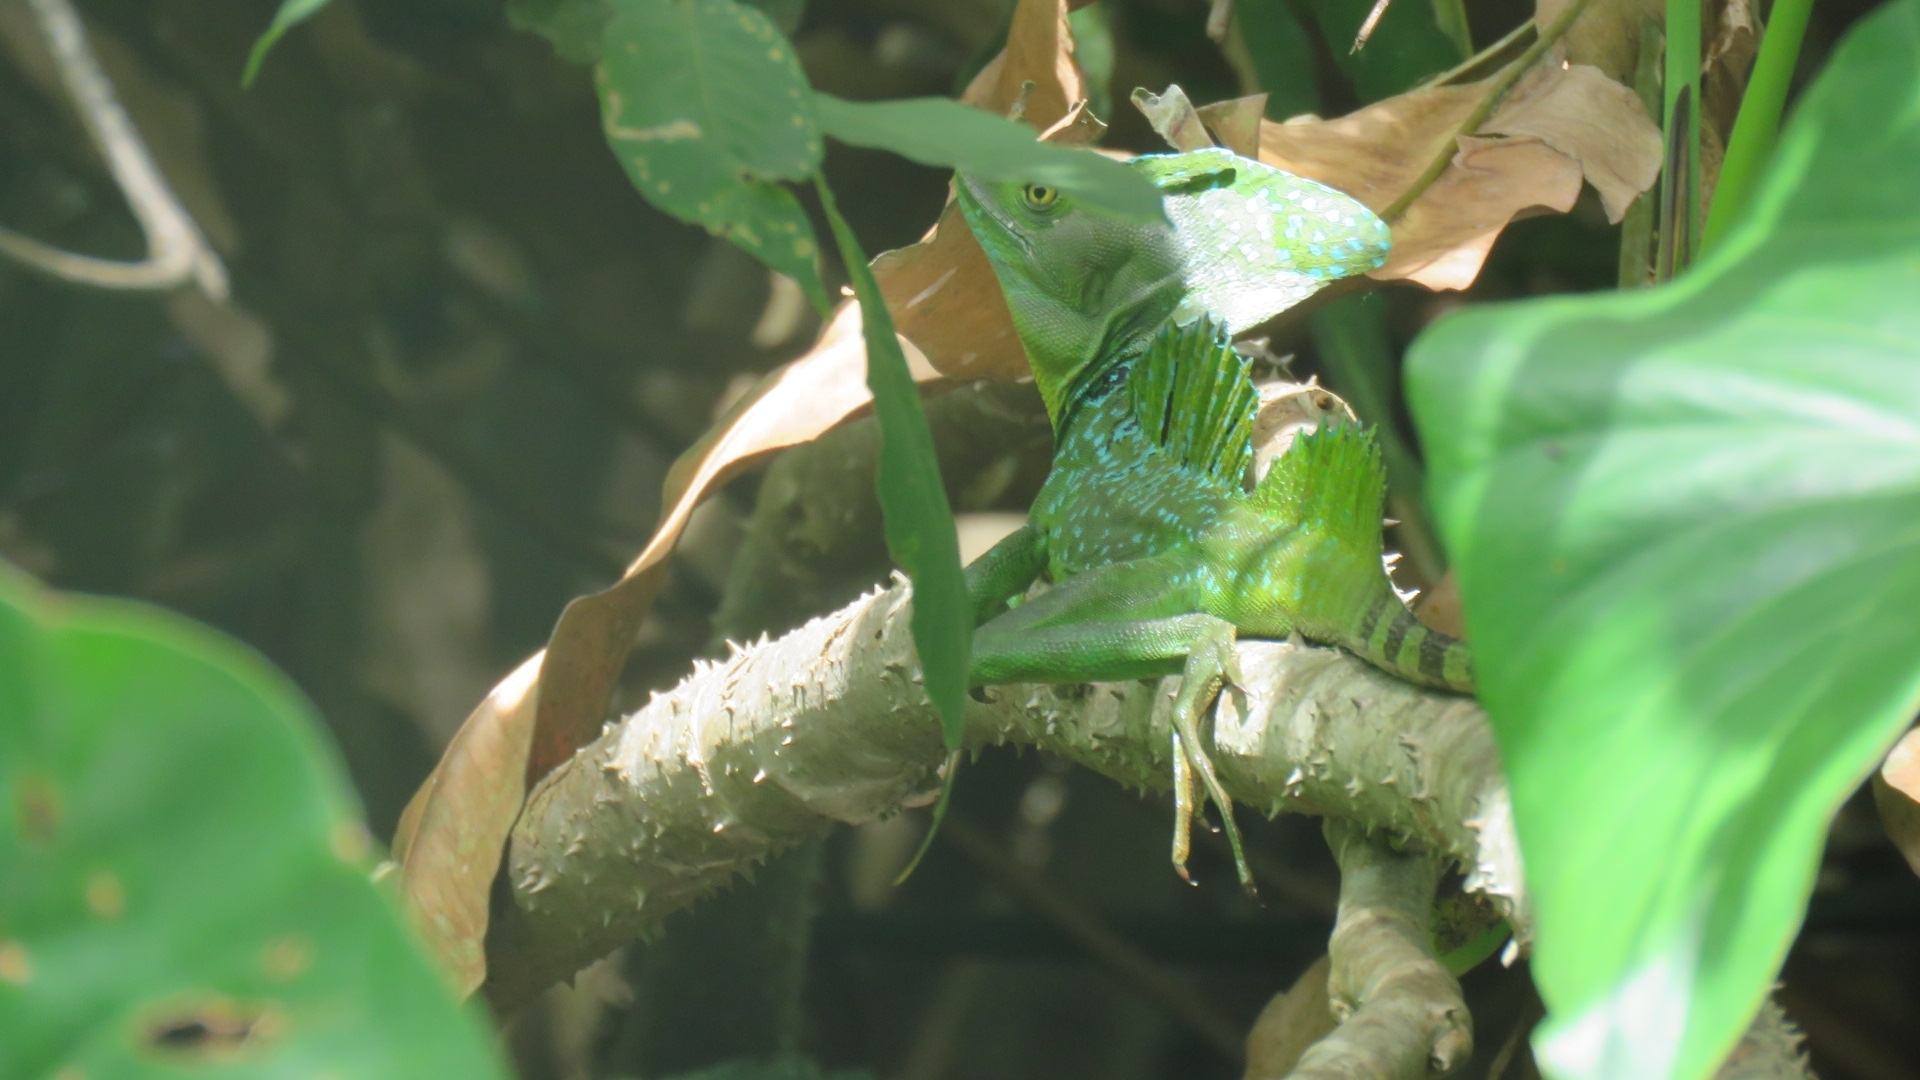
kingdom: Animalia
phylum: Chordata
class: Squamata
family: Corytophanidae
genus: Basiliscus
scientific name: Basiliscus plumifrons
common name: Green basilisk
